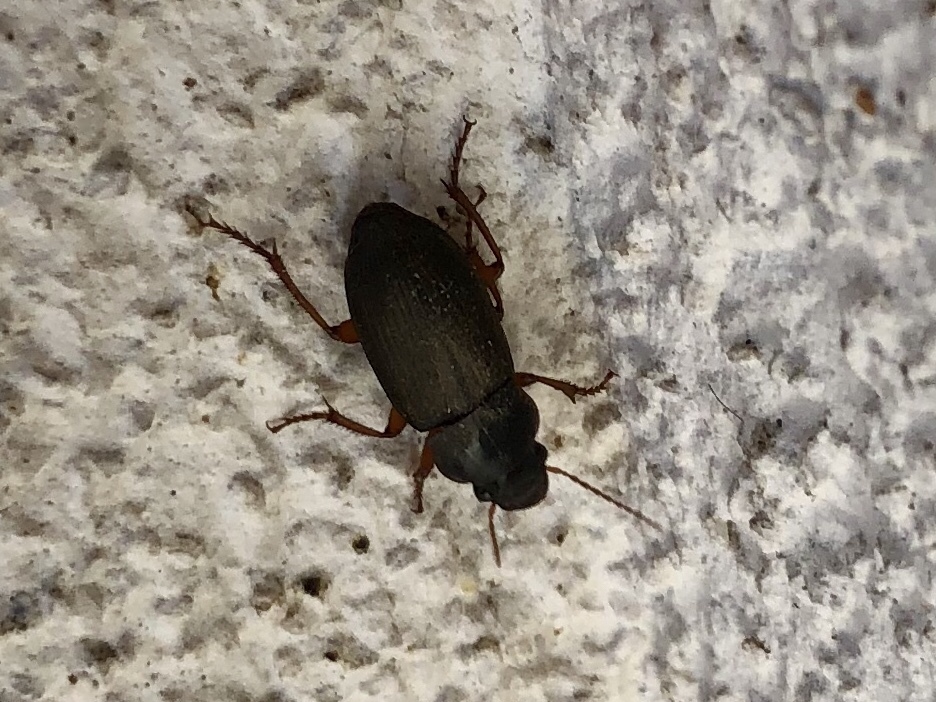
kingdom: Animalia
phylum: Arthropoda
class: Insecta
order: Coleoptera
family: Carabidae
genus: Harpalus
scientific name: Harpalus rufipes
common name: Strawberry harp ground beetle
